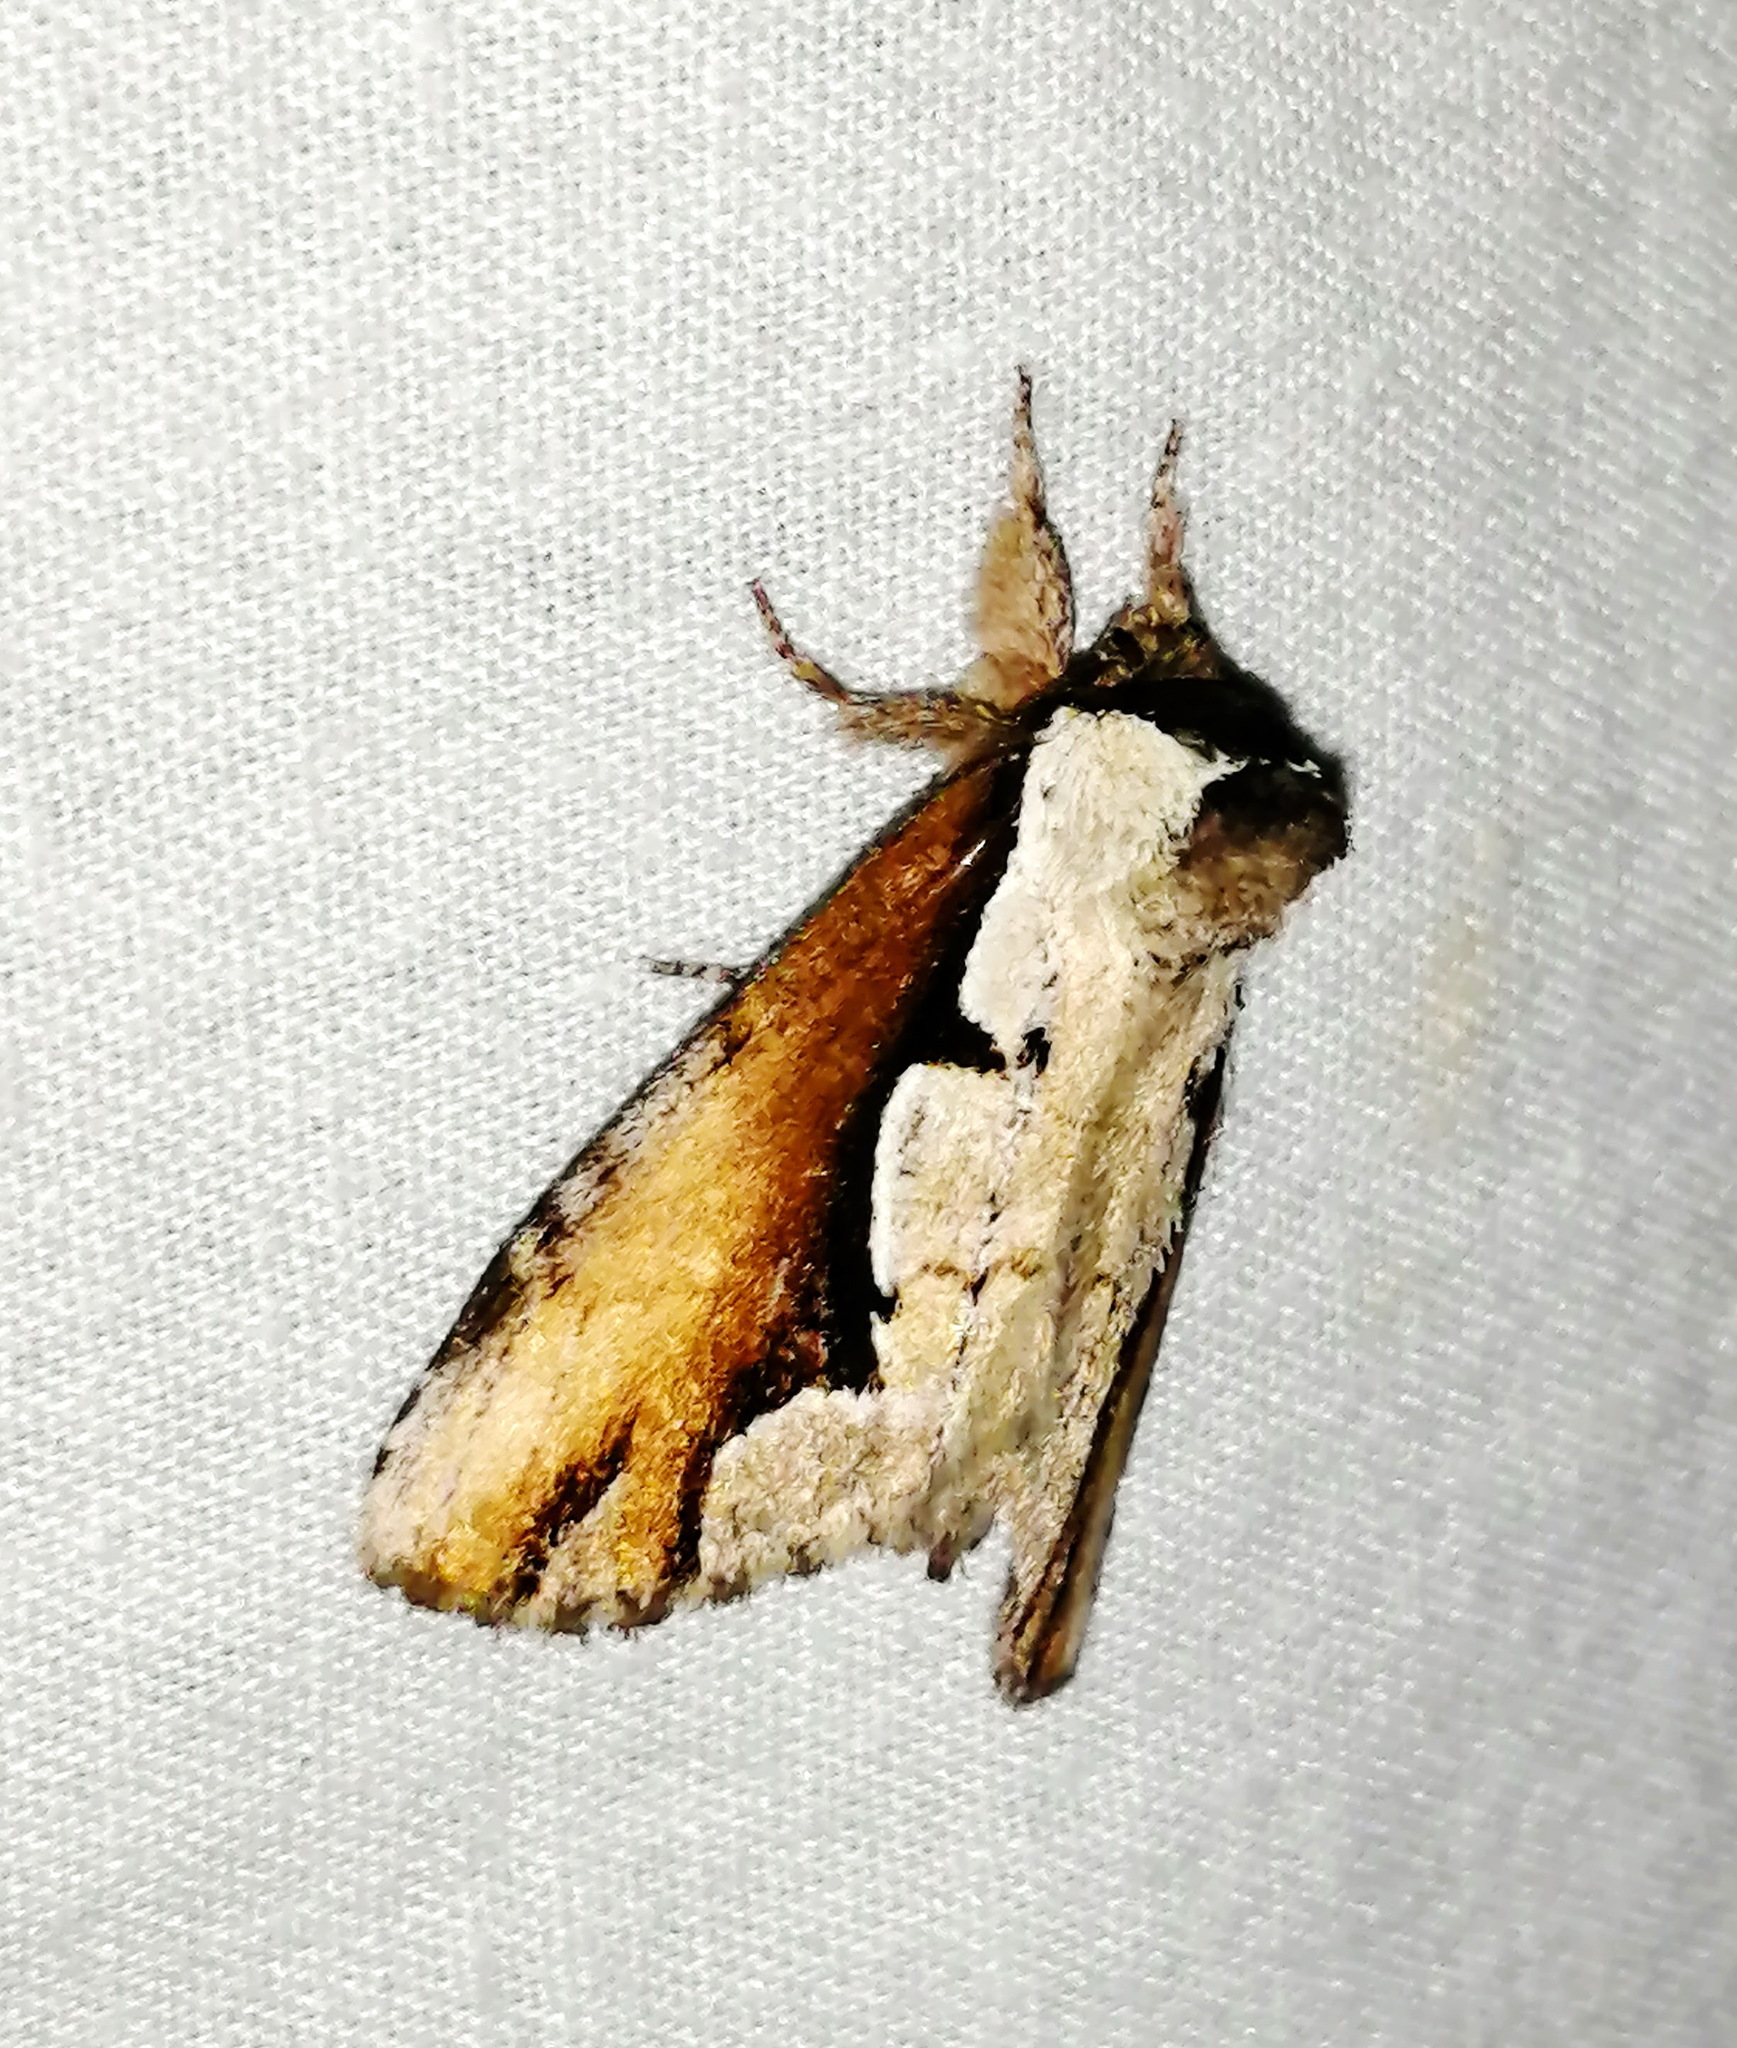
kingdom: Animalia
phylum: Arthropoda
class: Insecta
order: Lepidoptera
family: Notodontidae
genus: Nerice
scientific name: Nerice bidentata
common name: Double-toothed prominent
